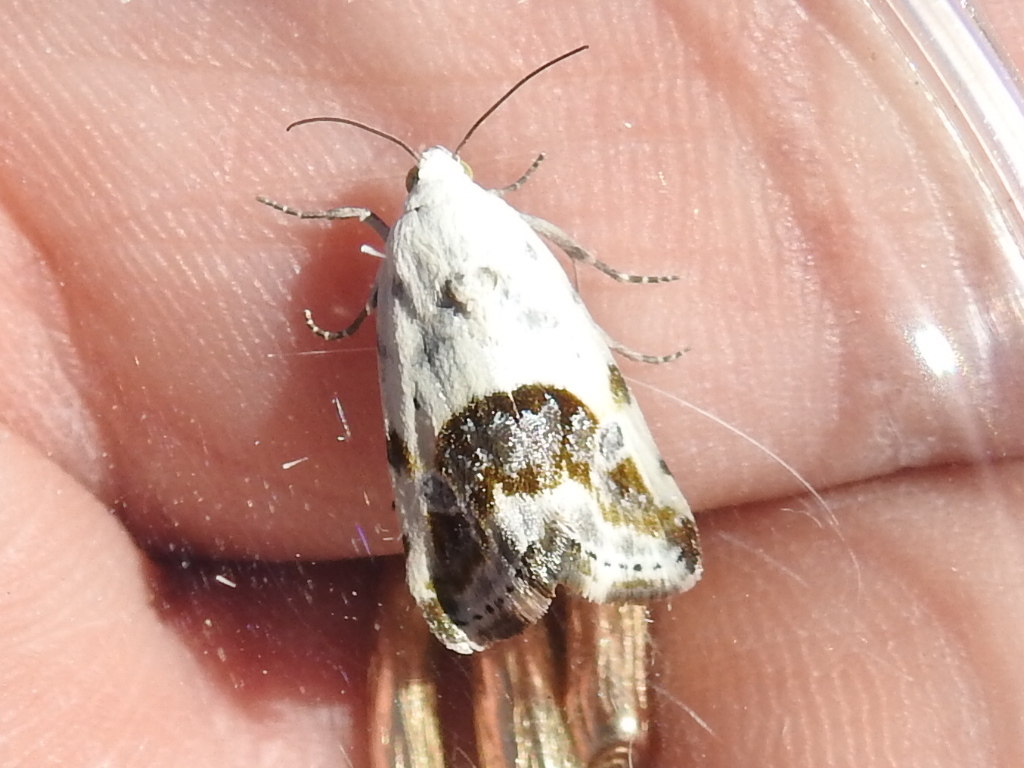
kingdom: Animalia
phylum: Arthropoda
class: Insecta
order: Lepidoptera
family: Noctuidae
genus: Acontia
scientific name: Acontia candefacta
